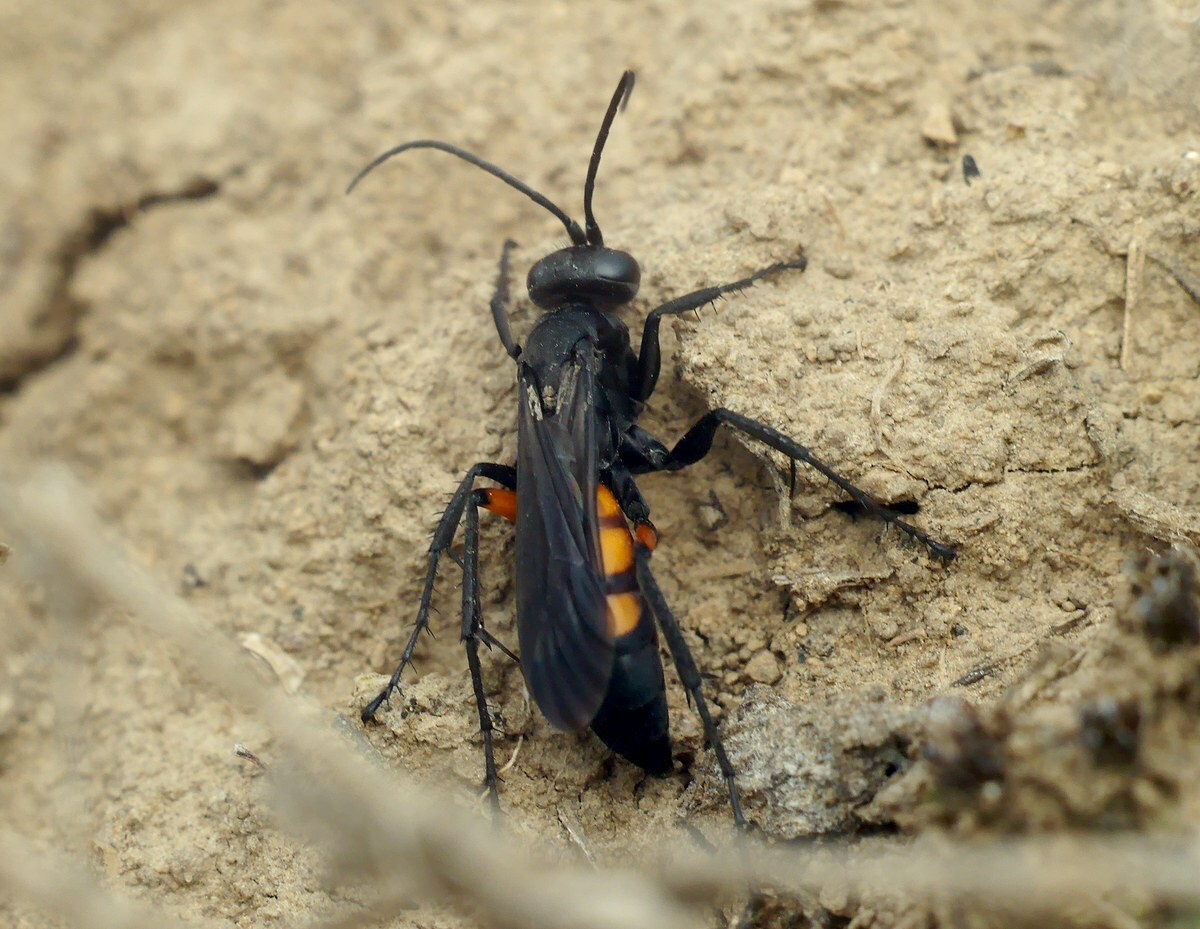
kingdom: Animalia
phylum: Arthropoda
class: Insecta
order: Hymenoptera
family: Pompilidae
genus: Anoplius
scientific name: Anoplius viaticus
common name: Black banded spider wasp
